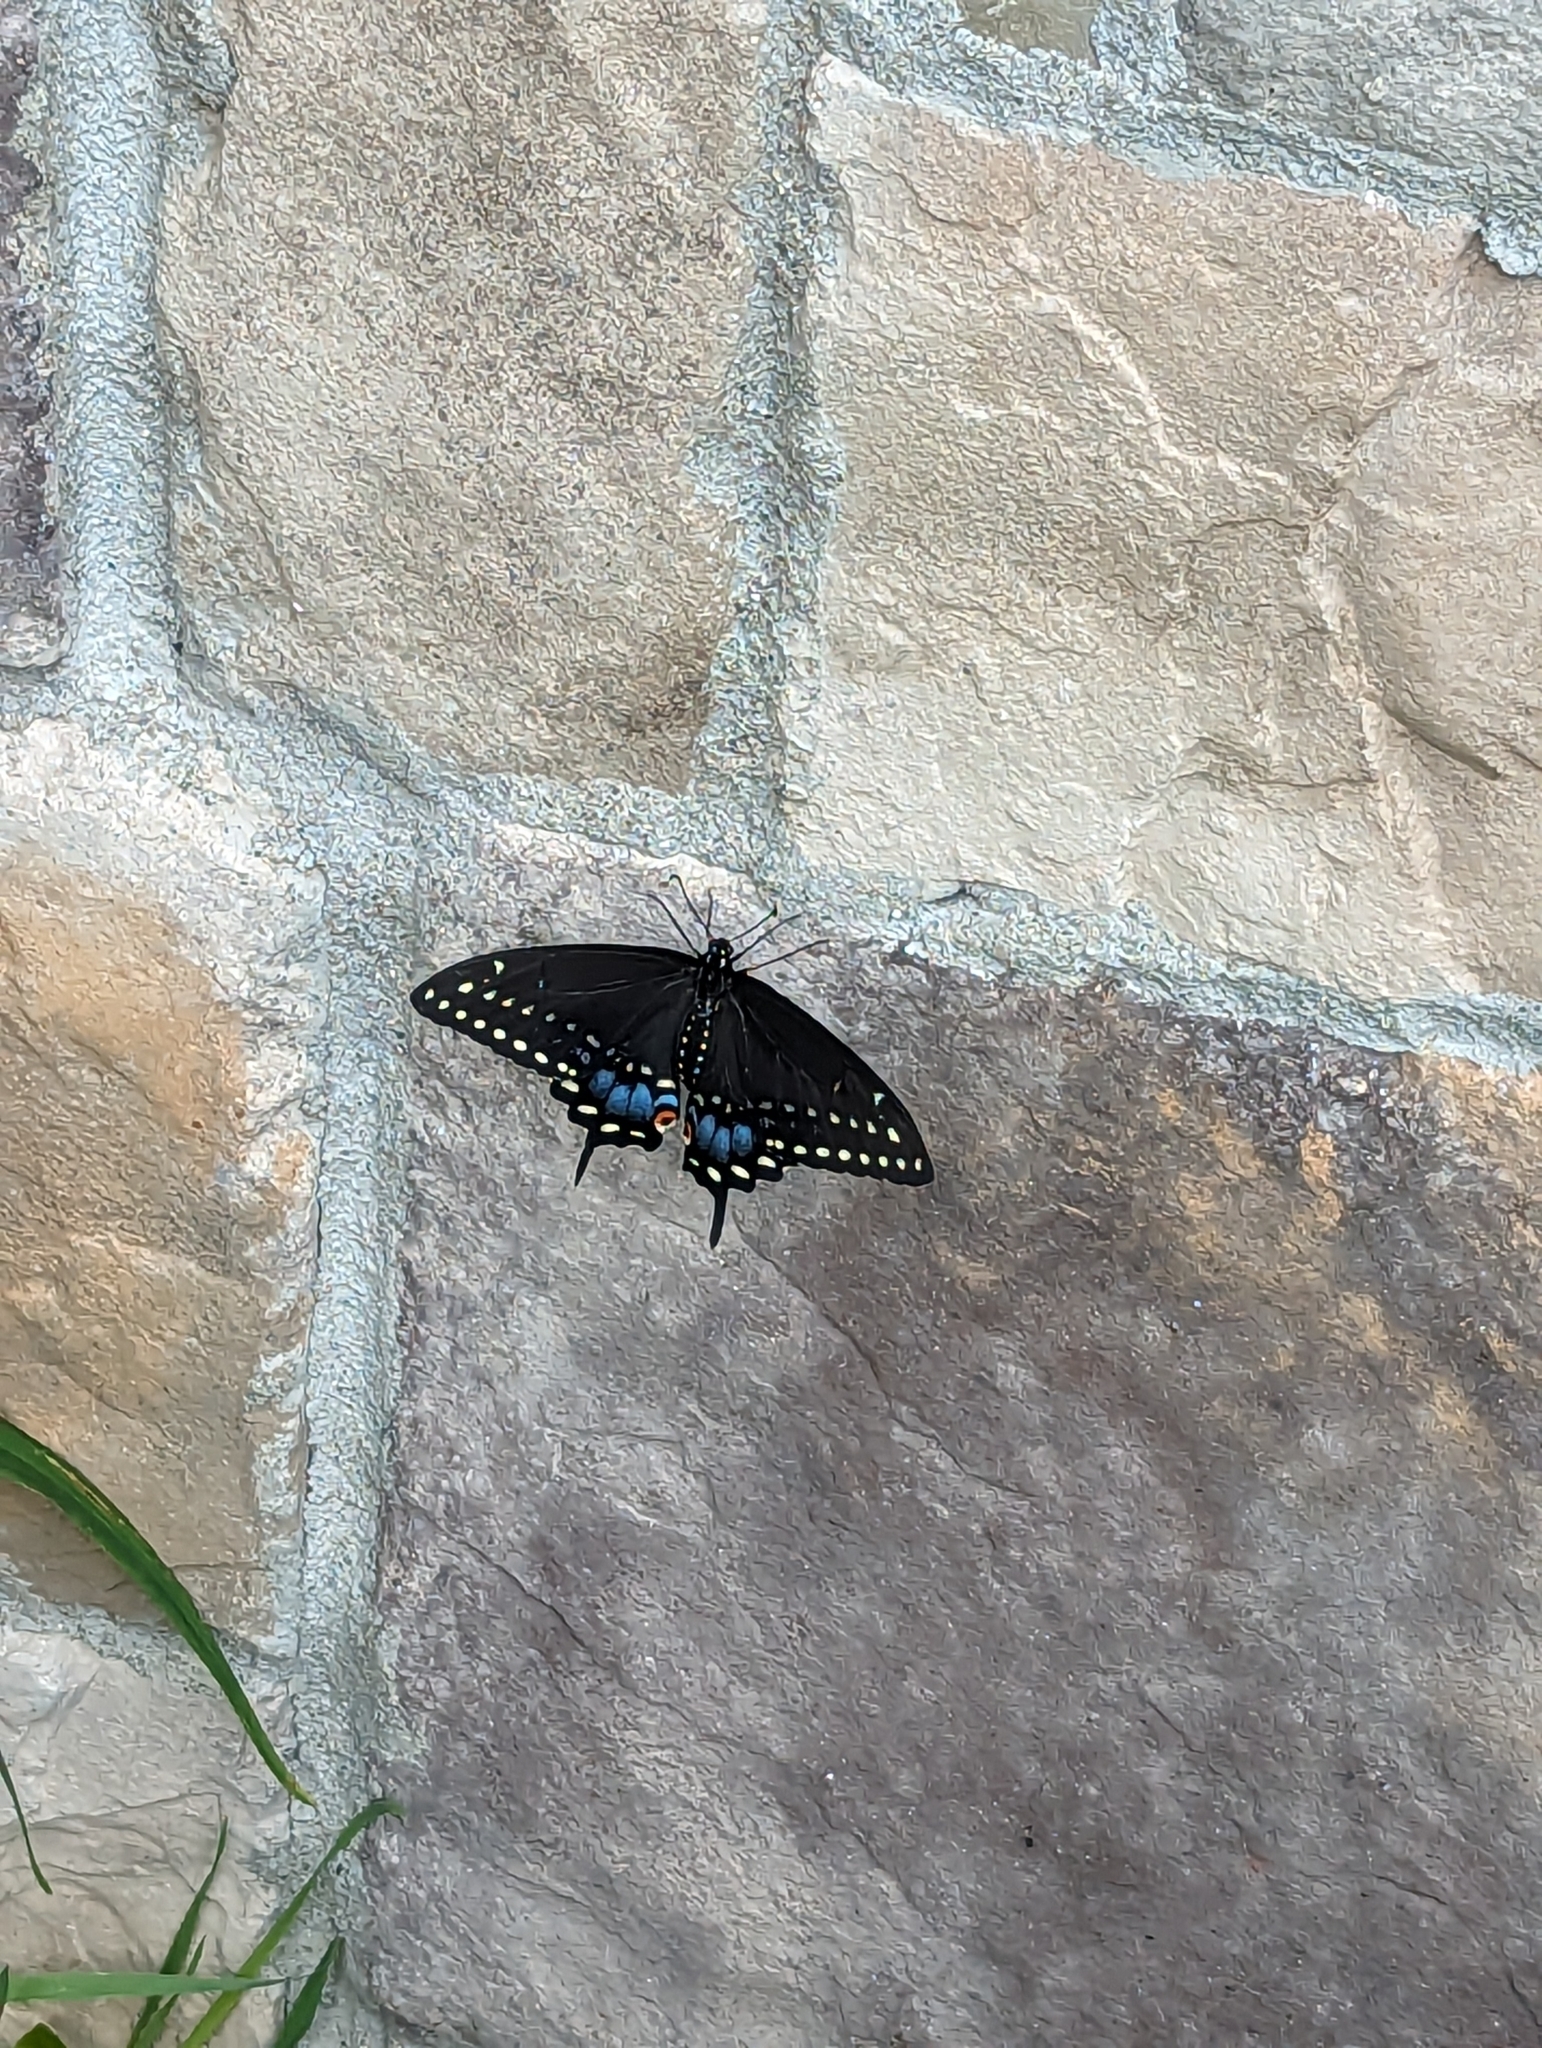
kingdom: Animalia
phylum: Arthropoda
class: Insecta
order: Lepidoptera
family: Papilionidae
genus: Papilio
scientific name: Papilio polyxenes
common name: Black swallowtail
